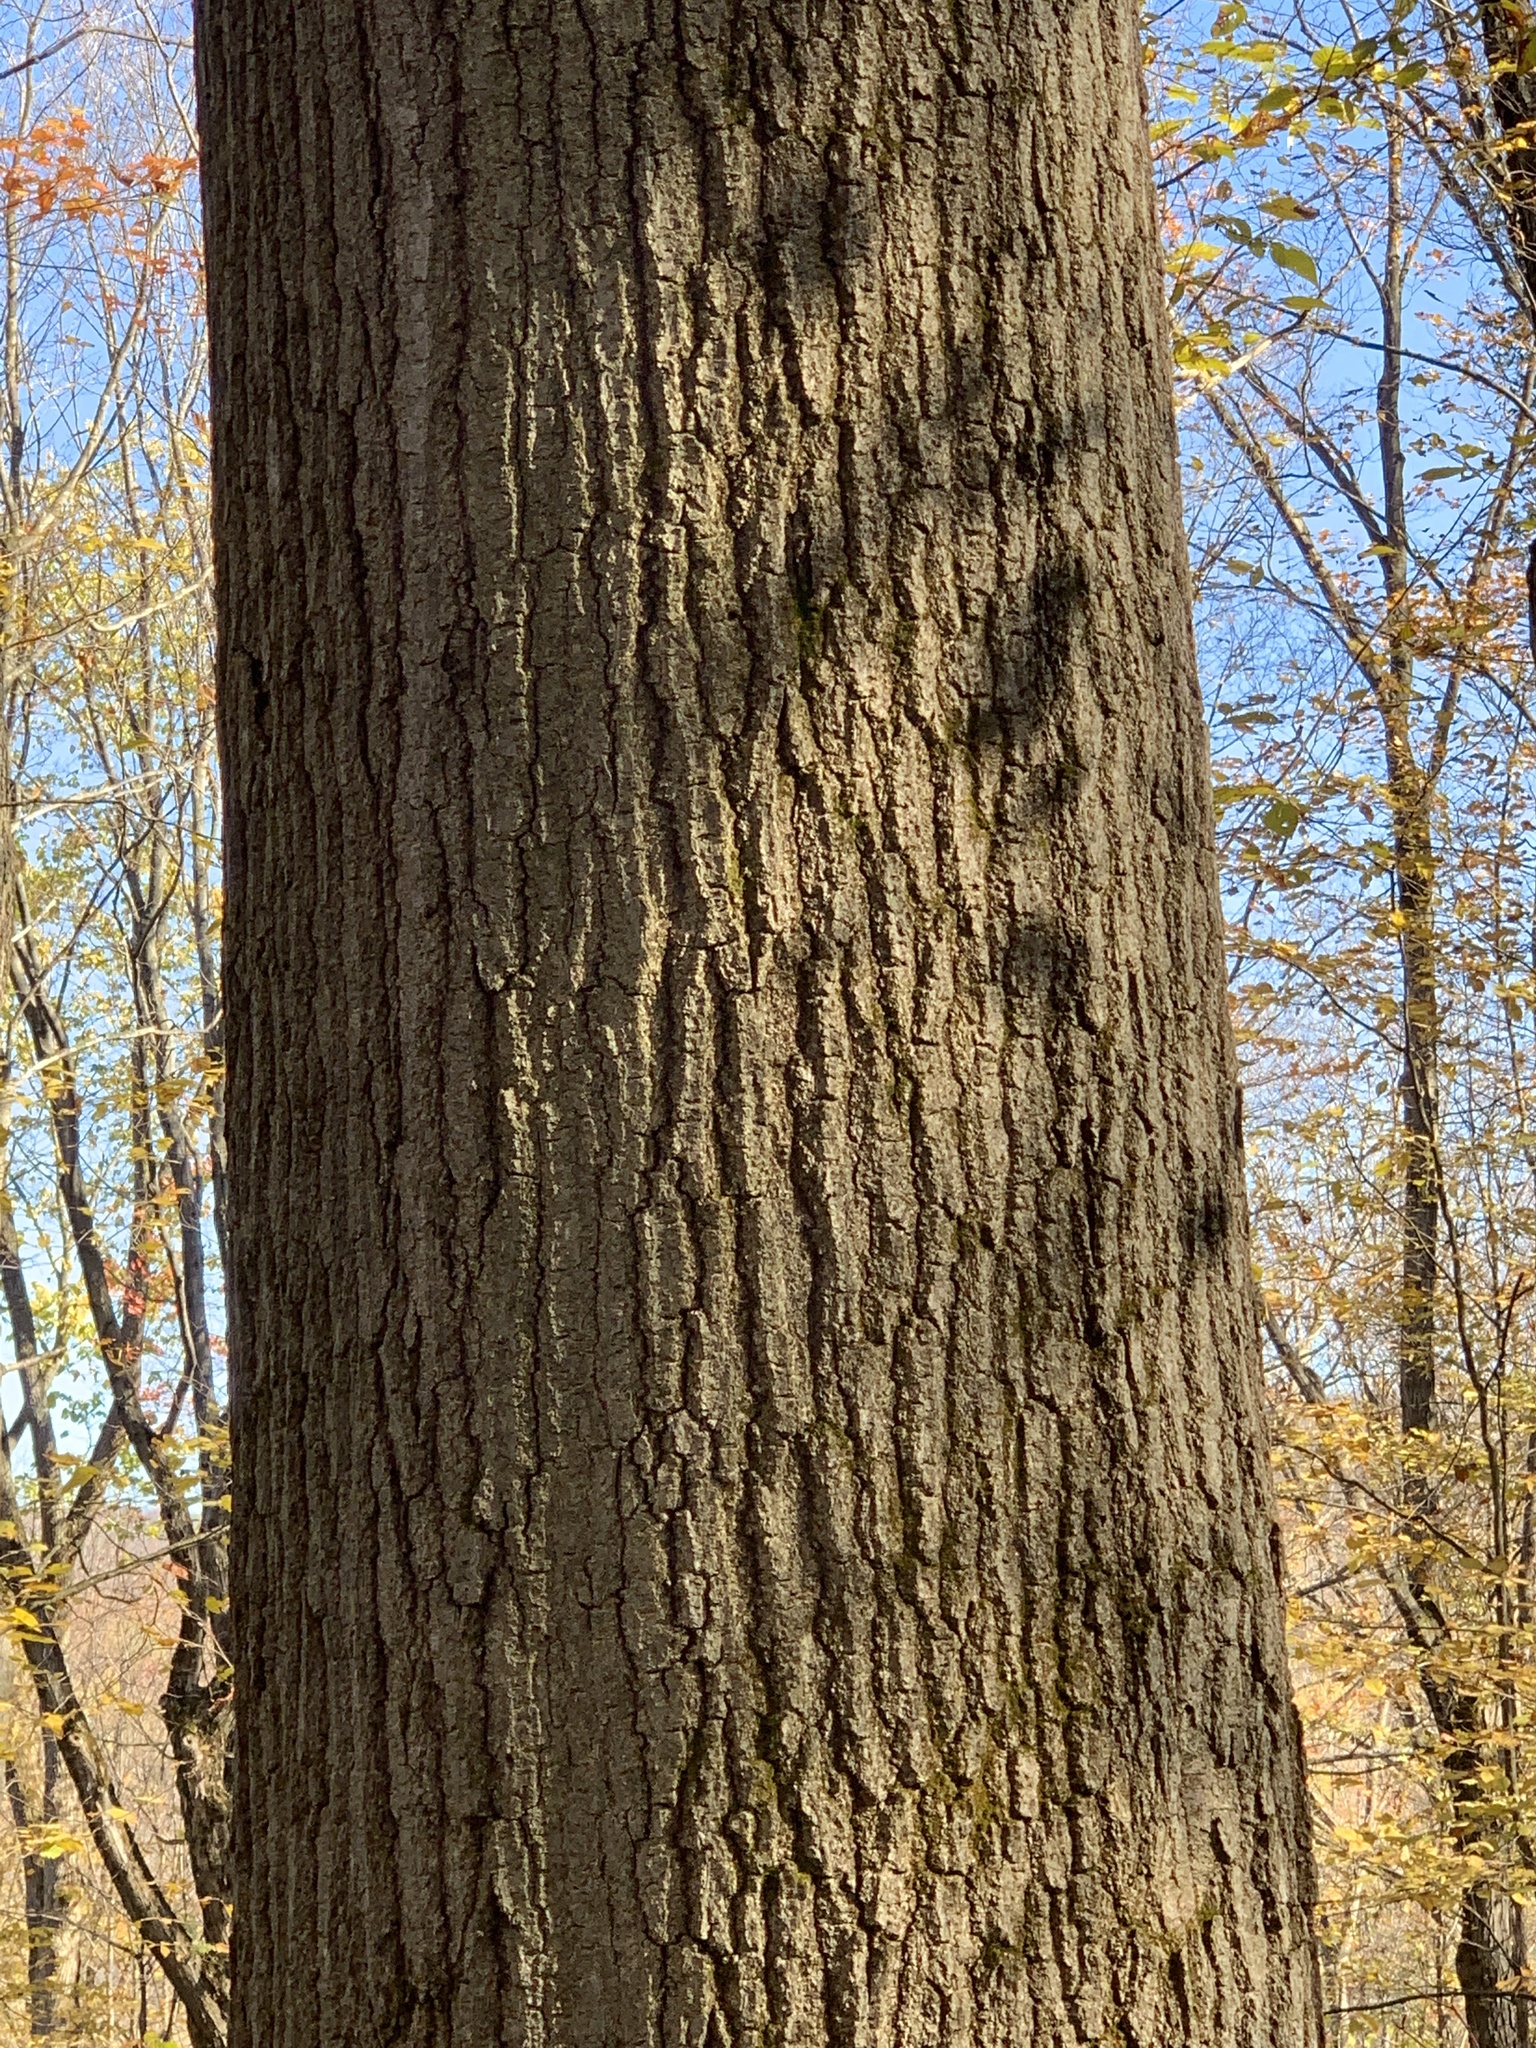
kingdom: Plantae
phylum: Tracheophyta
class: Magnoliopsida
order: Fagales
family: Fagaceae
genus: Quercus
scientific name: Quercus rubra
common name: Red oak
